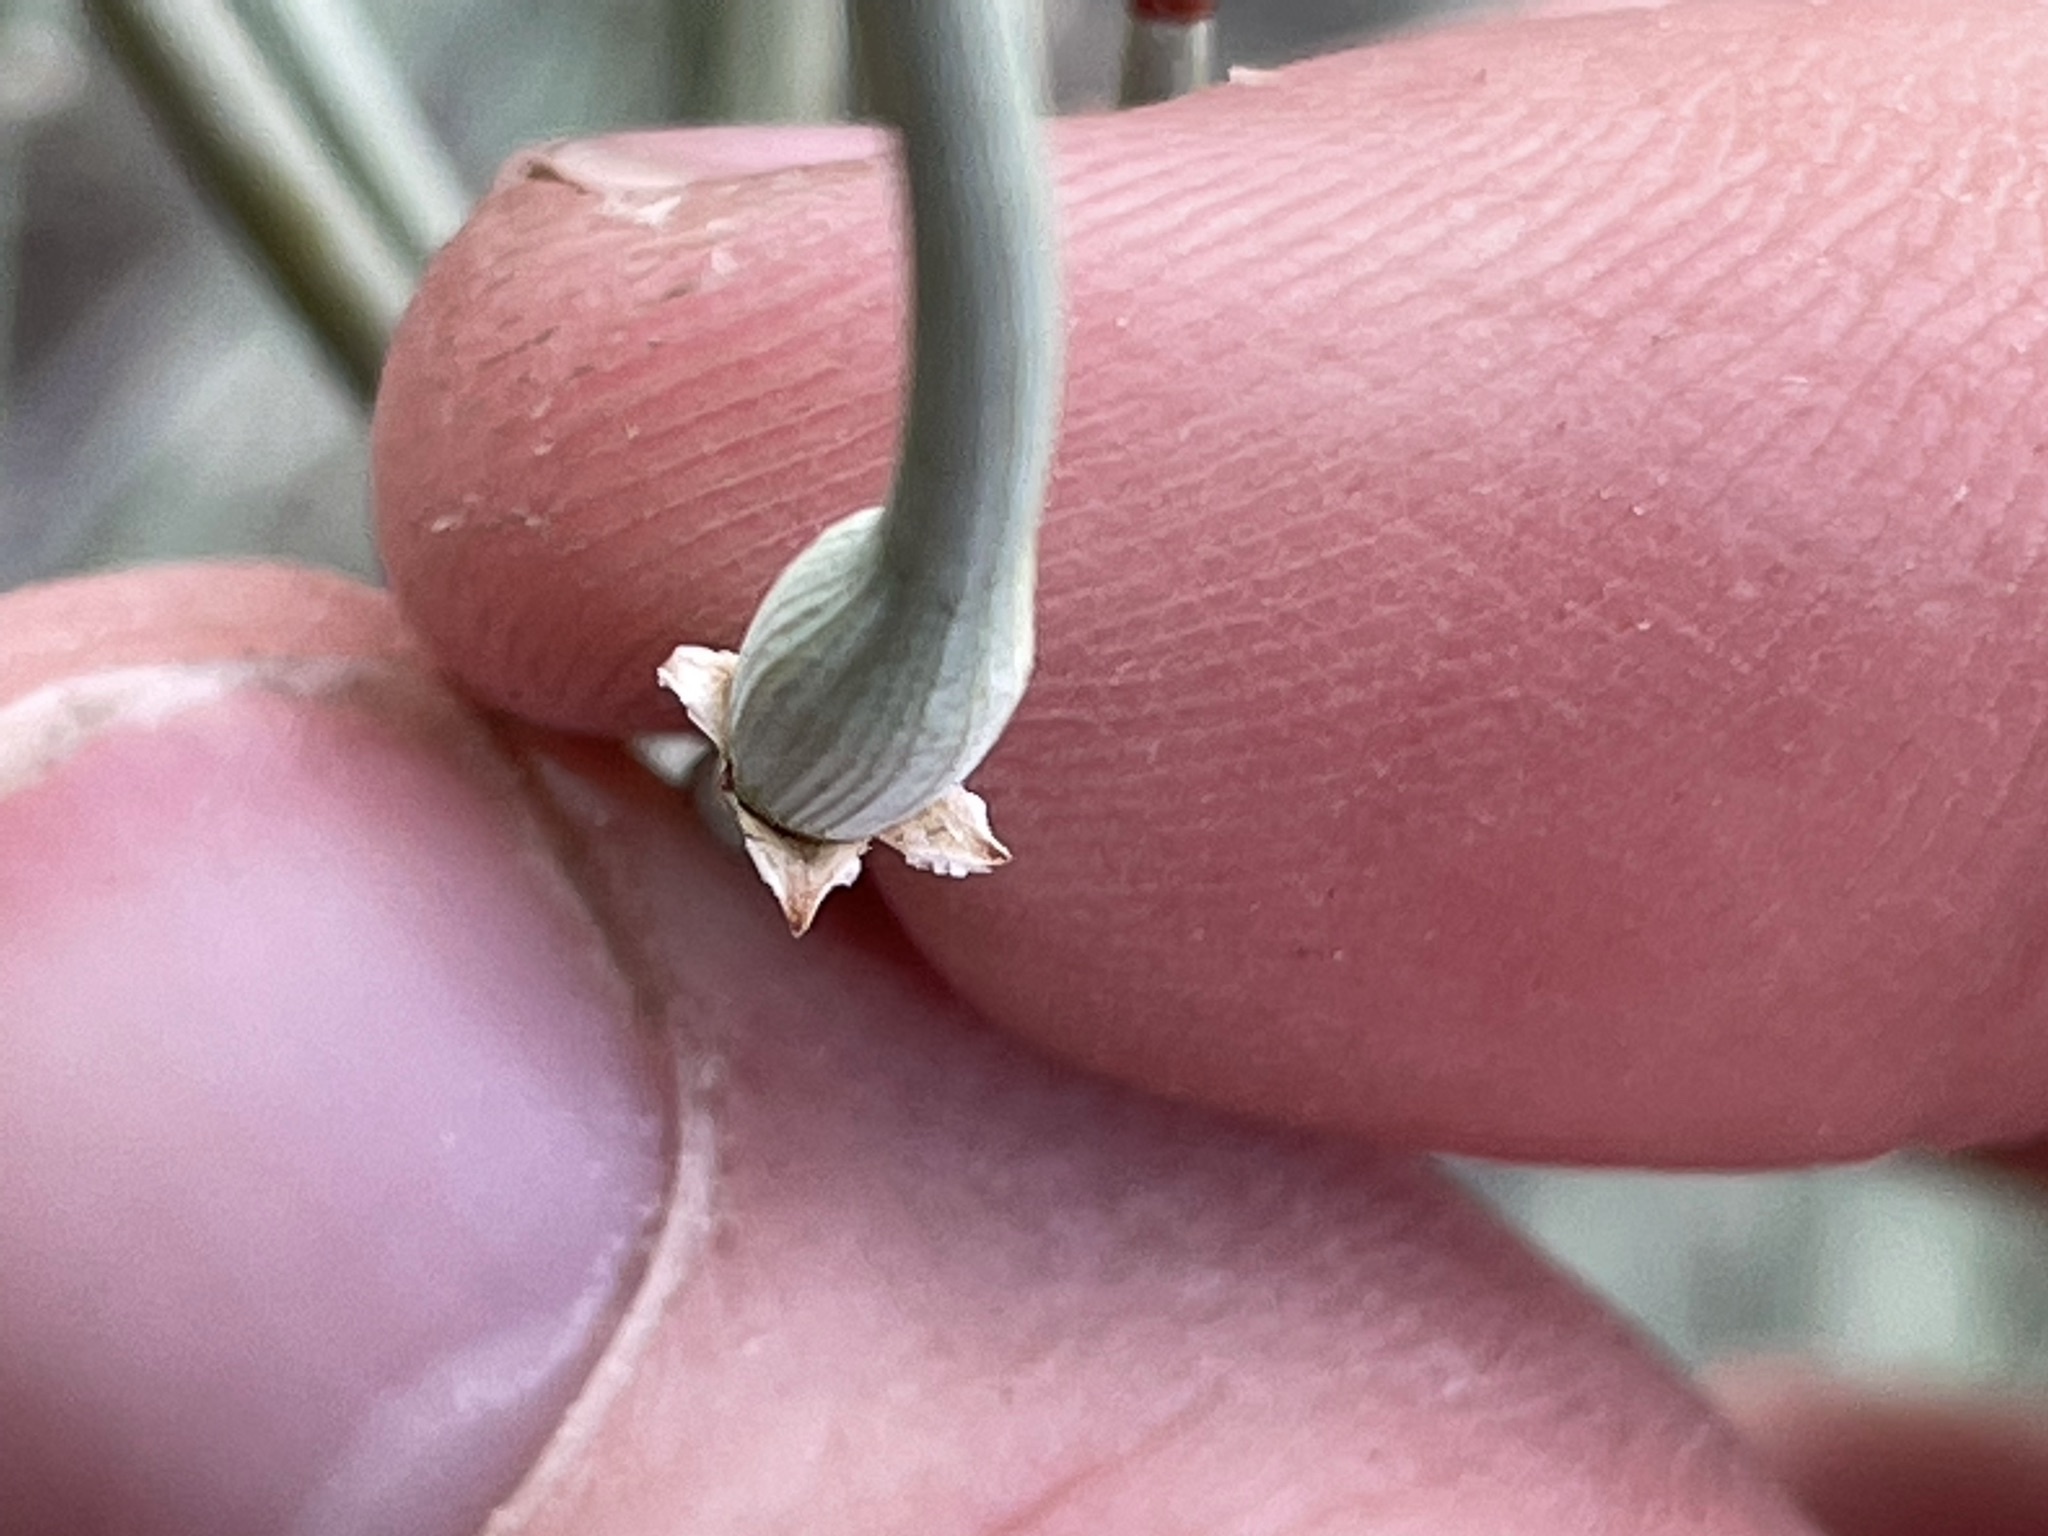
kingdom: Plantae
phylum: Tracheophyta
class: Gnetopsida
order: Ephedrales
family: Ephedraceae
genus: Ephedra
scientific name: Ephedra torreyana
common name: Torrey ephedra
